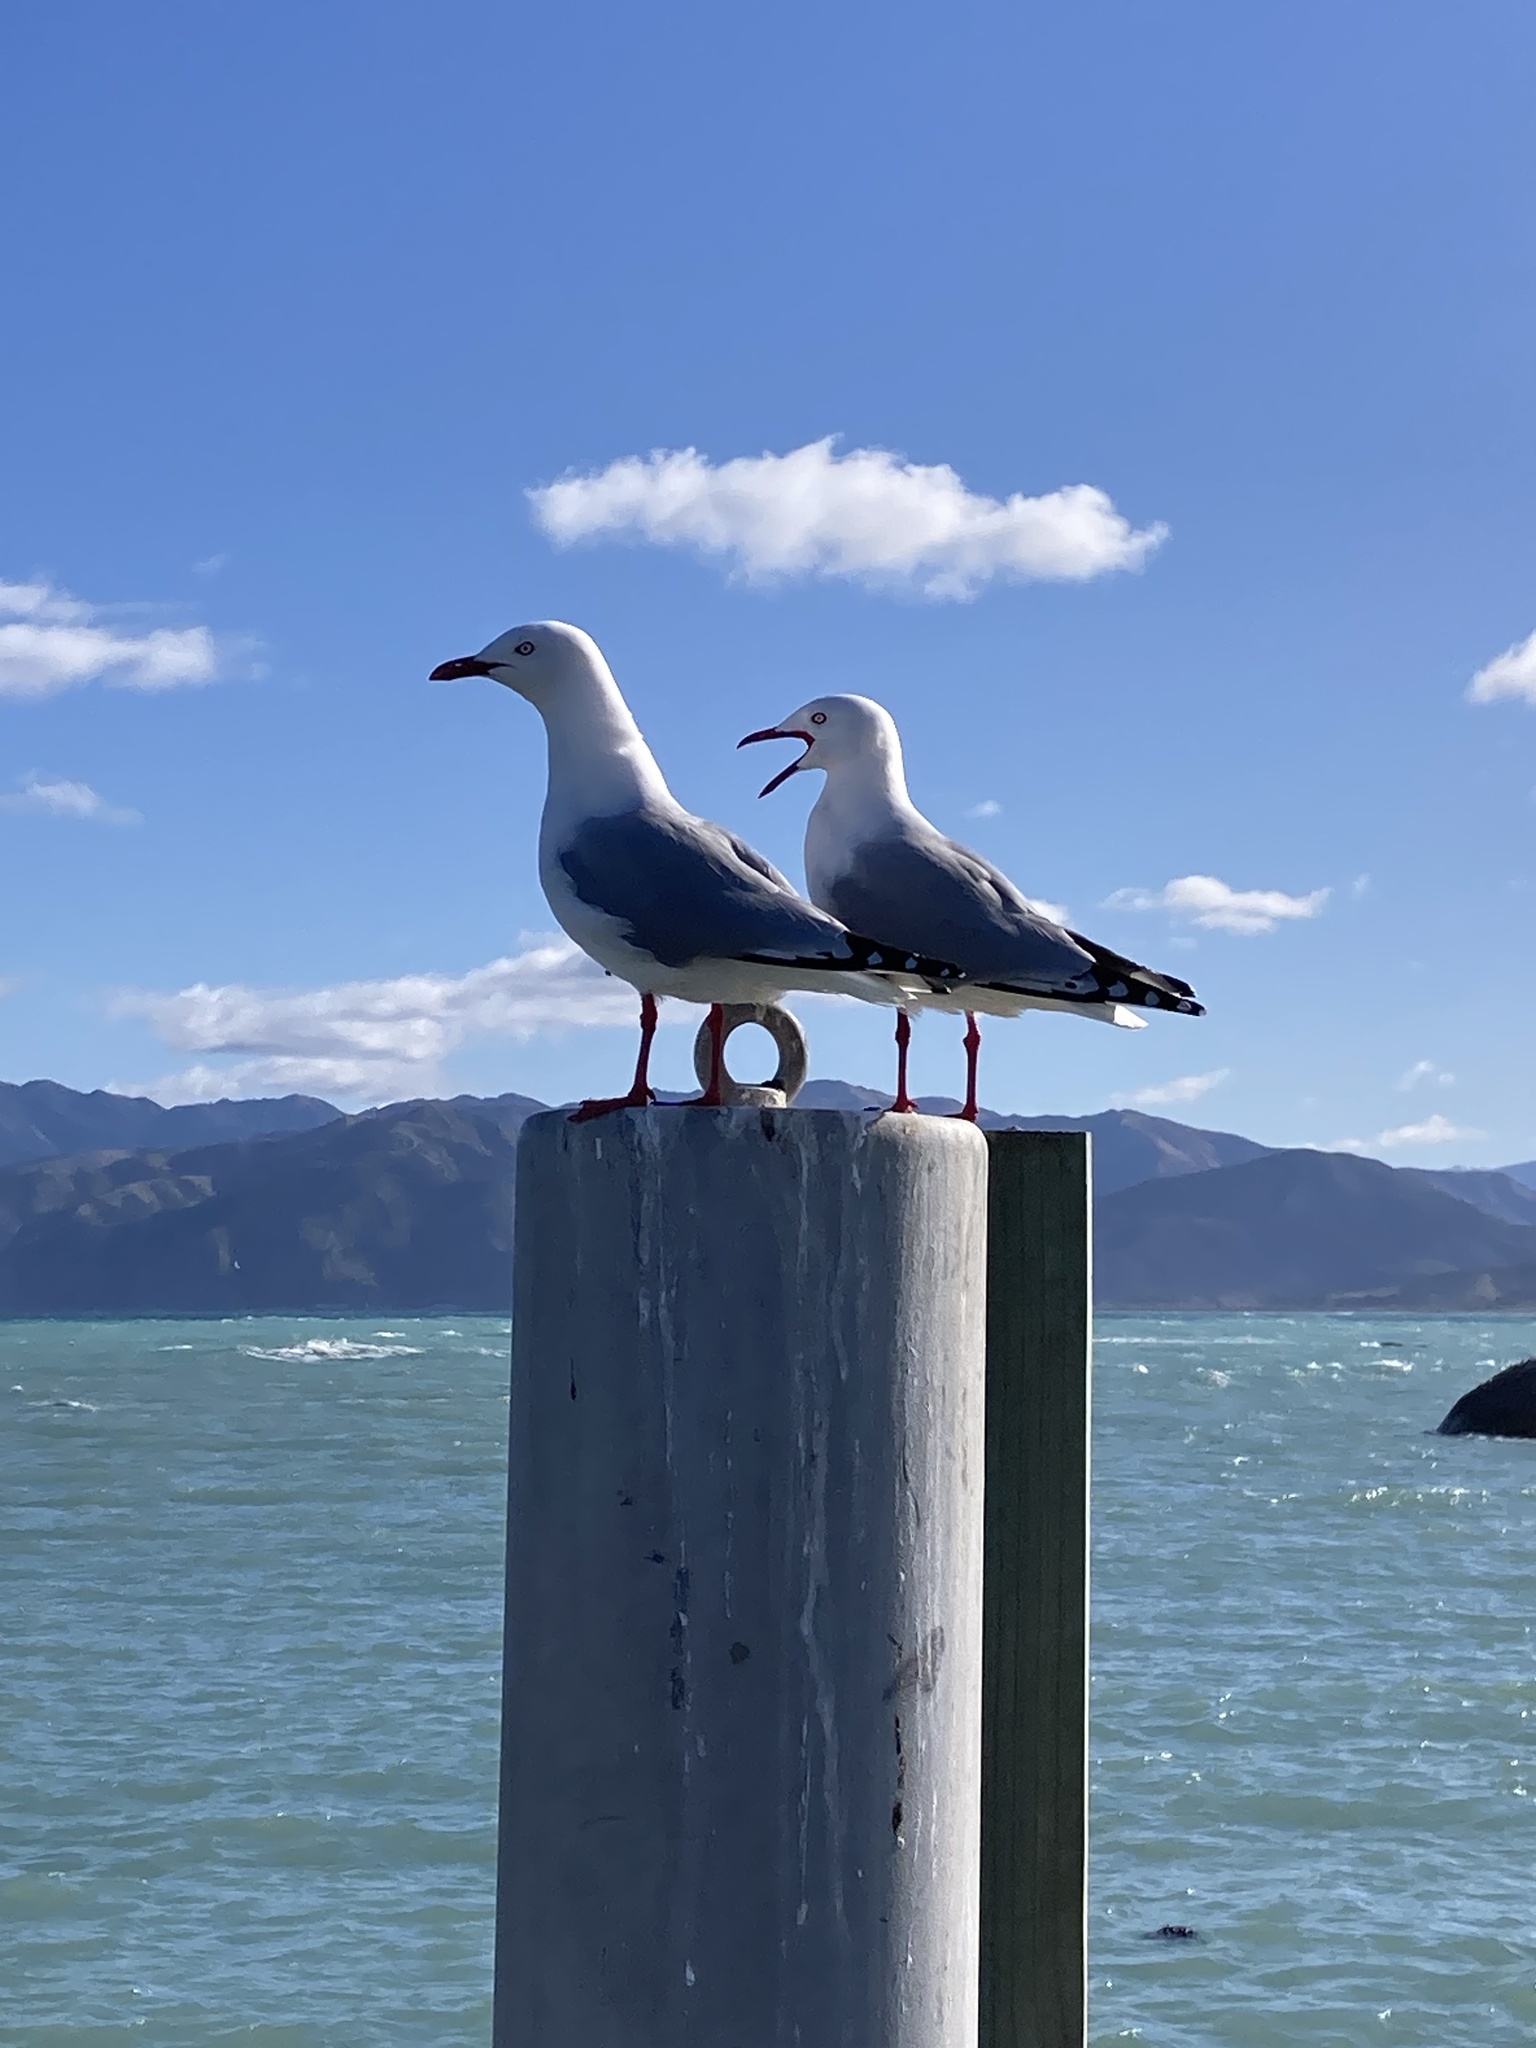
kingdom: Animalia
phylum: Chordata
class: Aves
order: Charadriiformes
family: Laridae
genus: Chroicocephalus
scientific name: Chroicocephalus novaehollandiae
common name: Silver gull
